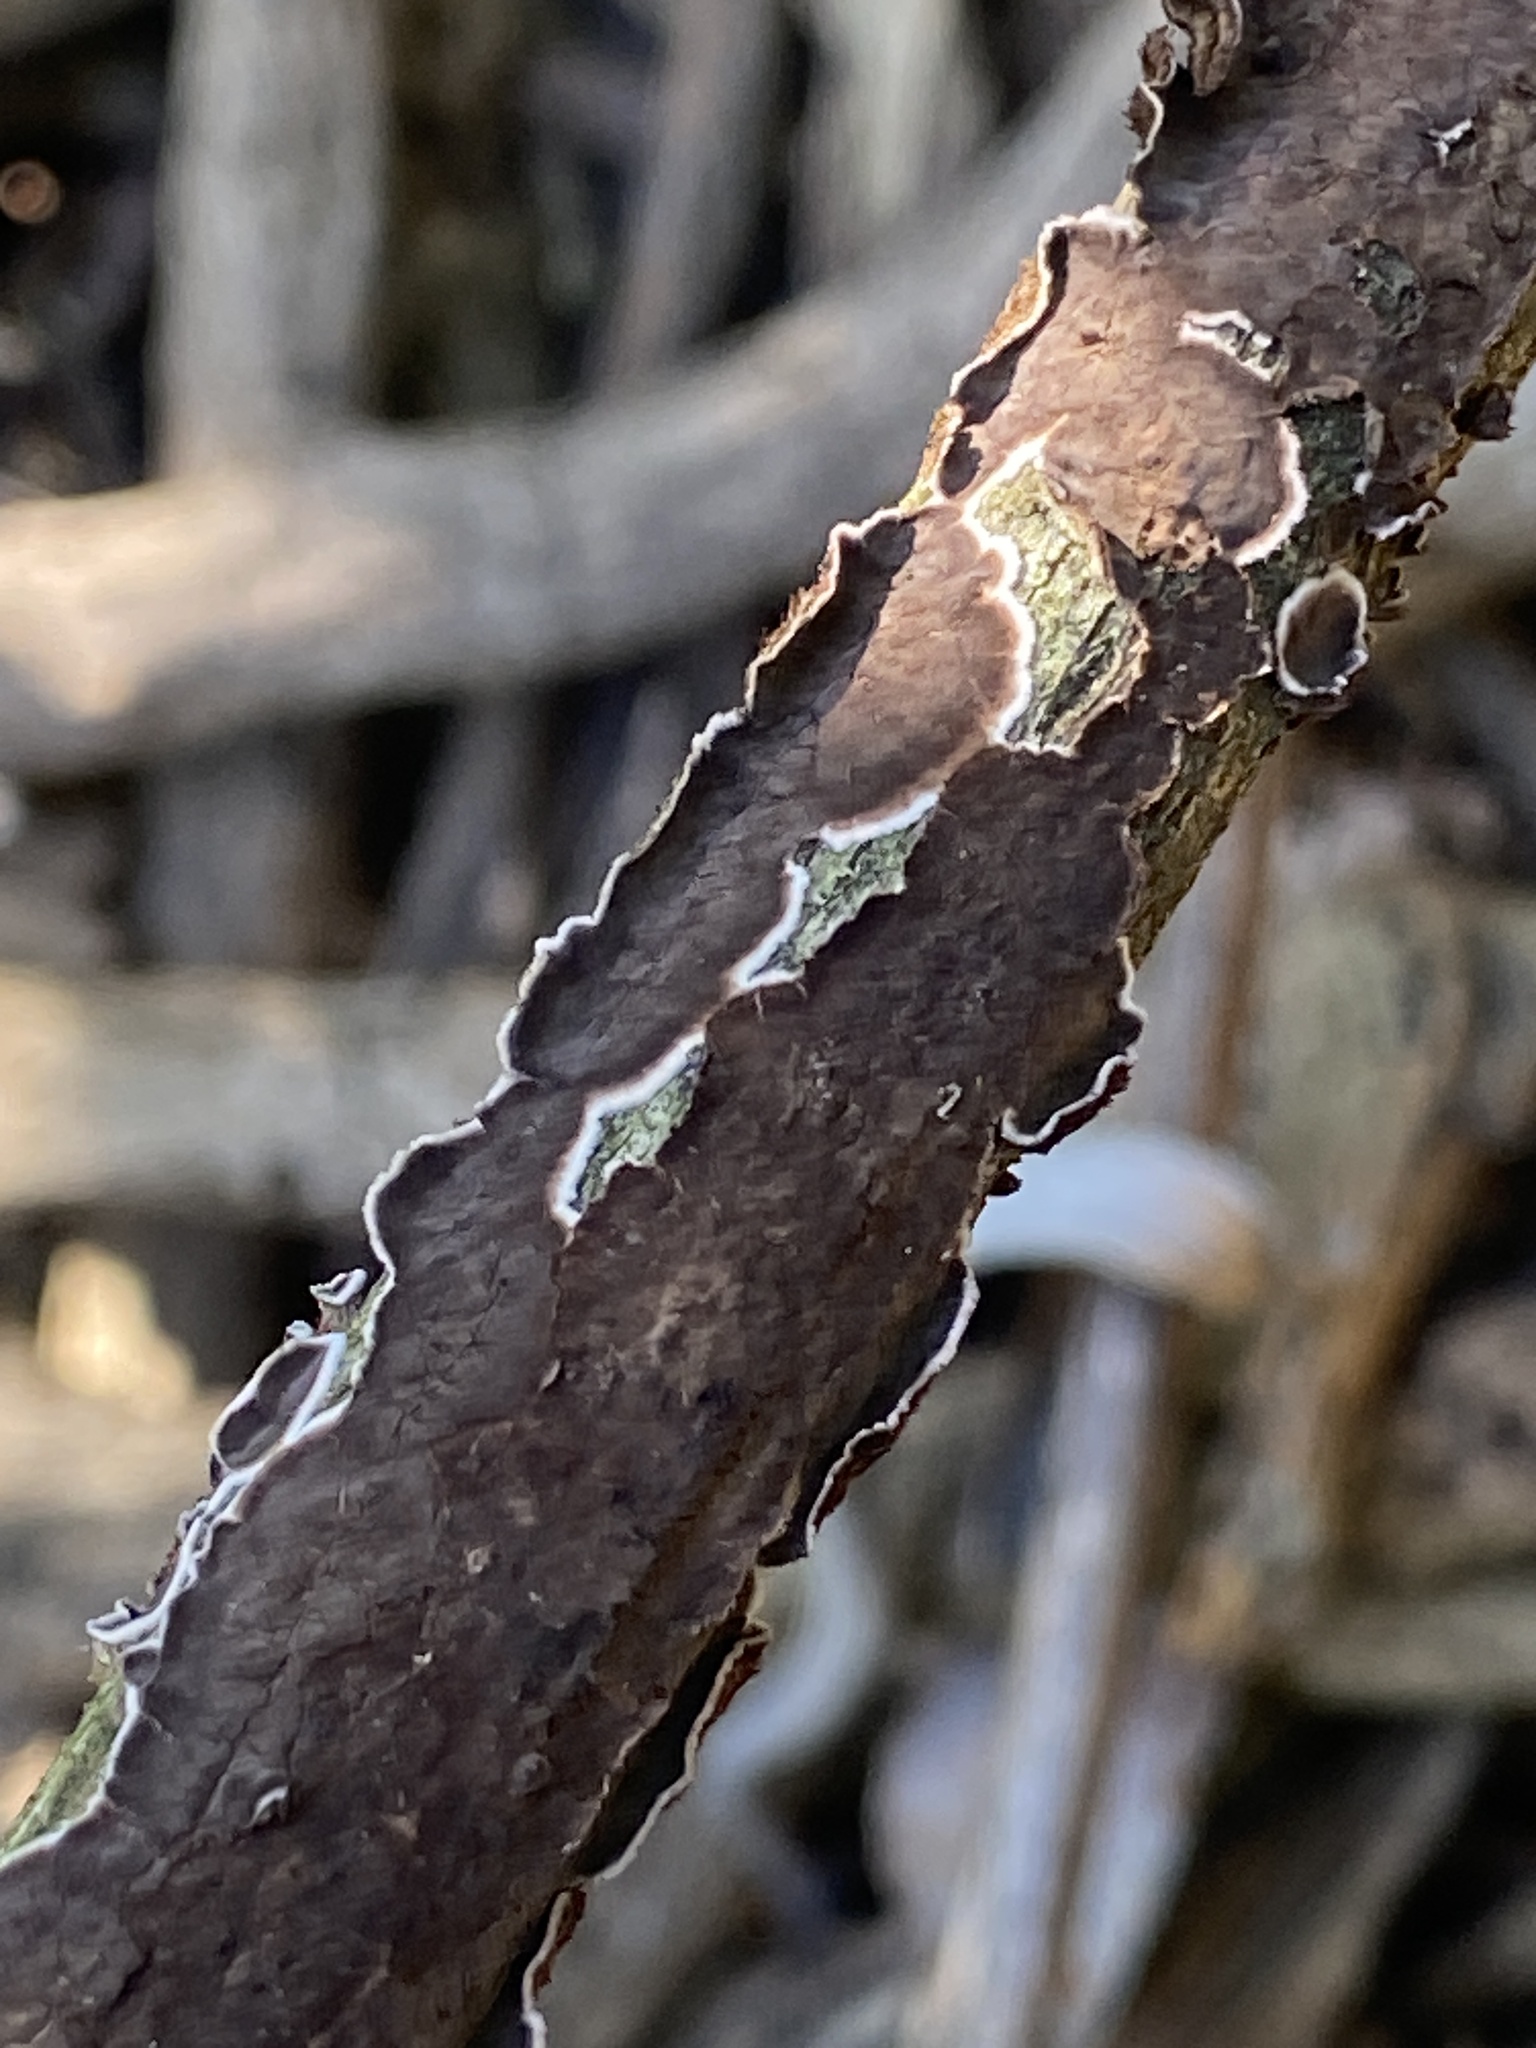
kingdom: Fungi
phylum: Basidiomycota
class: Agaricomycetes
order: Russulales
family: Peniophoraceae
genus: Peniophora
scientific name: Peniophora albobadia
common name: Giraffe spots
